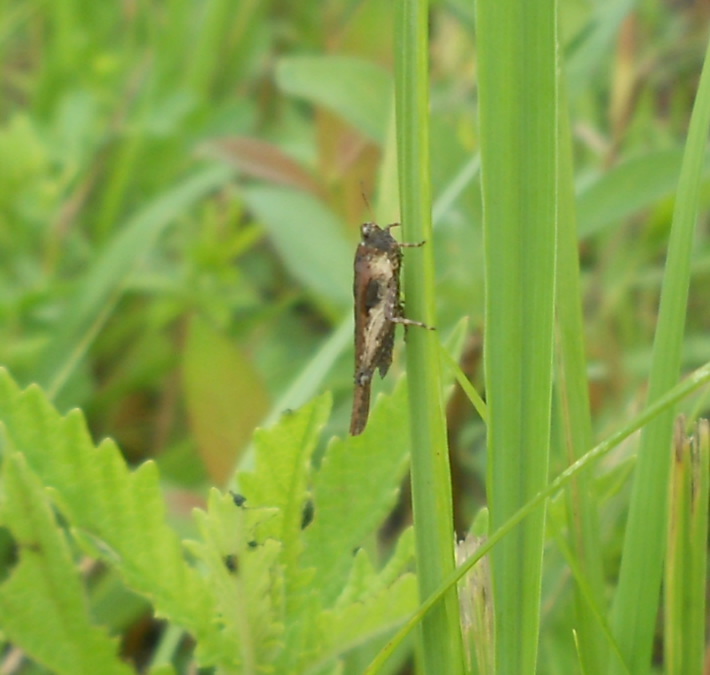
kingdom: Animalia
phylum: Arthropoda
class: Insecta
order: Orthoptera
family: Tetrigidae
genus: Tetrix
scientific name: Tetrix subulata
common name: Slender ground-hopper
